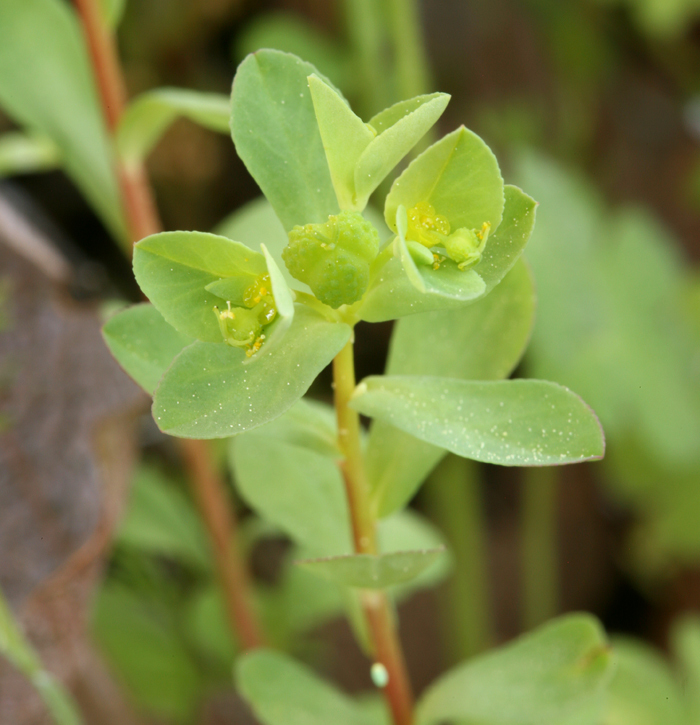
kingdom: Plantae
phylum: Tracheophyta
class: Magnoliopsida
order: Malpighiales
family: Euphorbiaceae
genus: Euphorbia
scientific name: Euphorbia spathulata
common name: Blunt spurge
